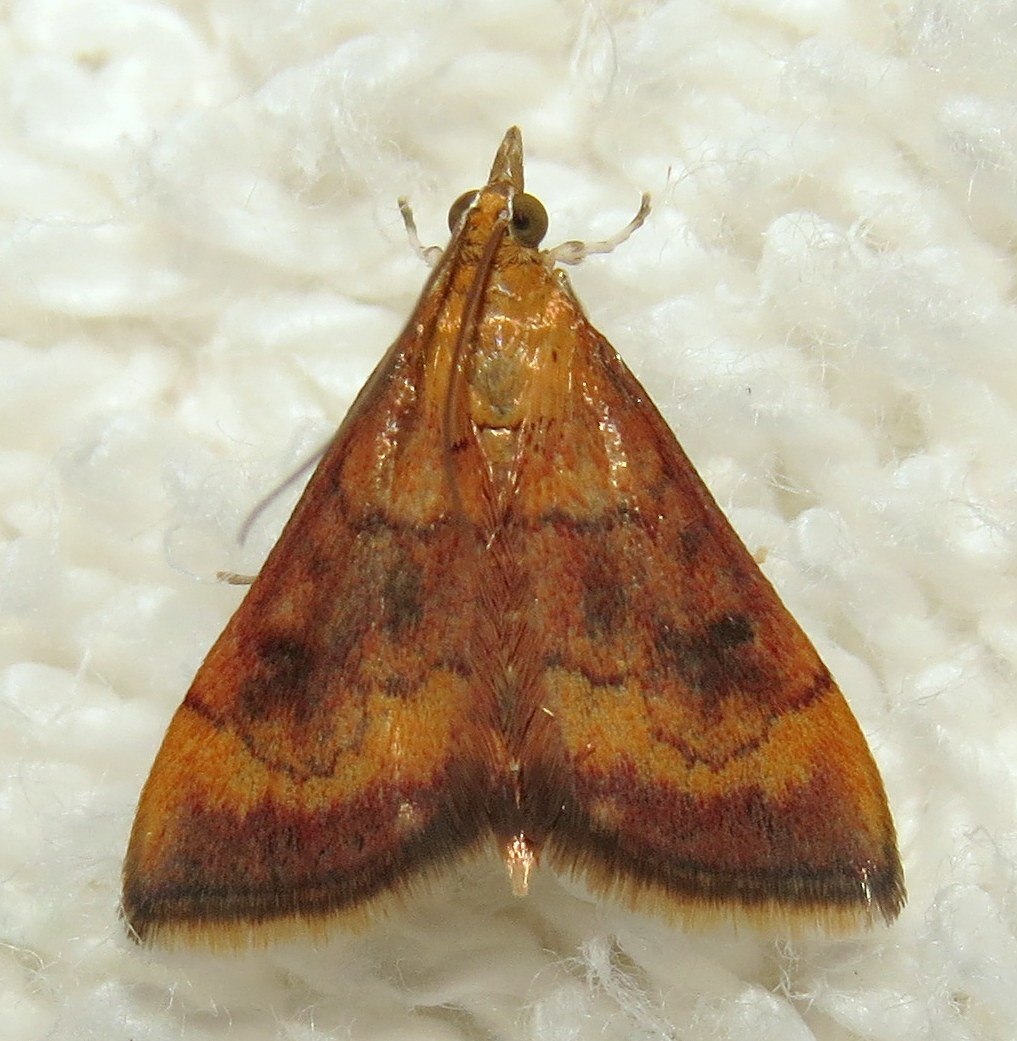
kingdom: Animalia
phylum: Arthropoda
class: Insecta
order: Lepidoptera
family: Crambidae
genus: Pyrausta
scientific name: Pyrausta rubricalis
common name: Variable reddish pyrausta
